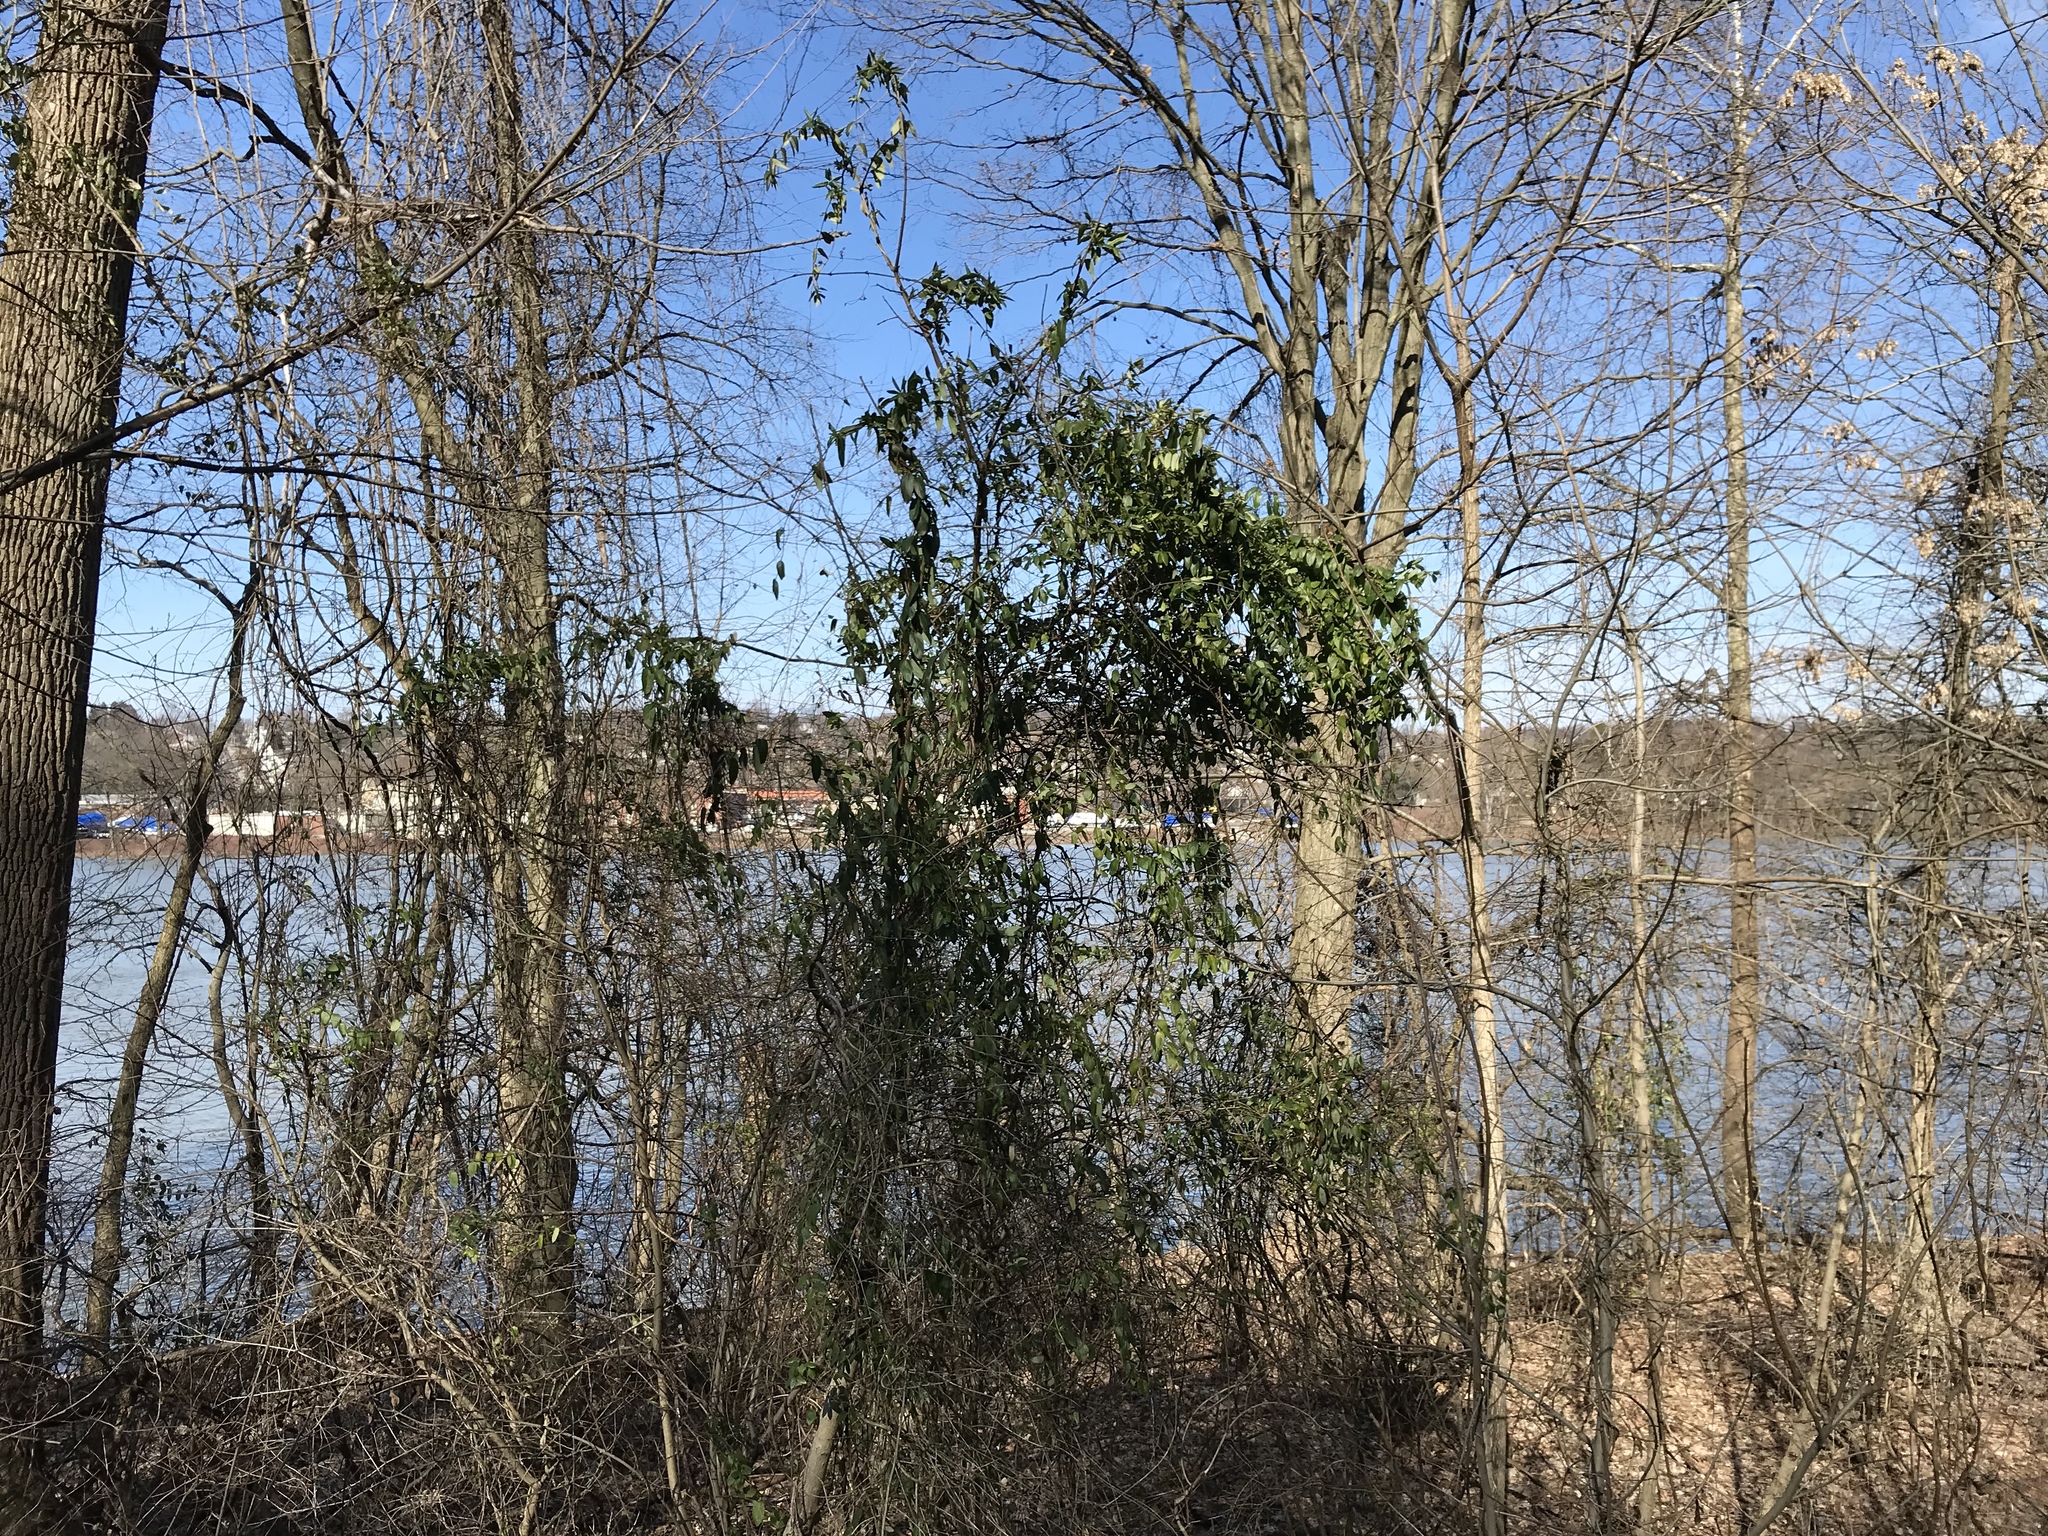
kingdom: Plantae
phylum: Tracheophyta
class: Magnoliopsida
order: Dipsacales
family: Caprifoliaceae
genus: Lonicera
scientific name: Lonicera japonica
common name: Japanese honeysuckle
